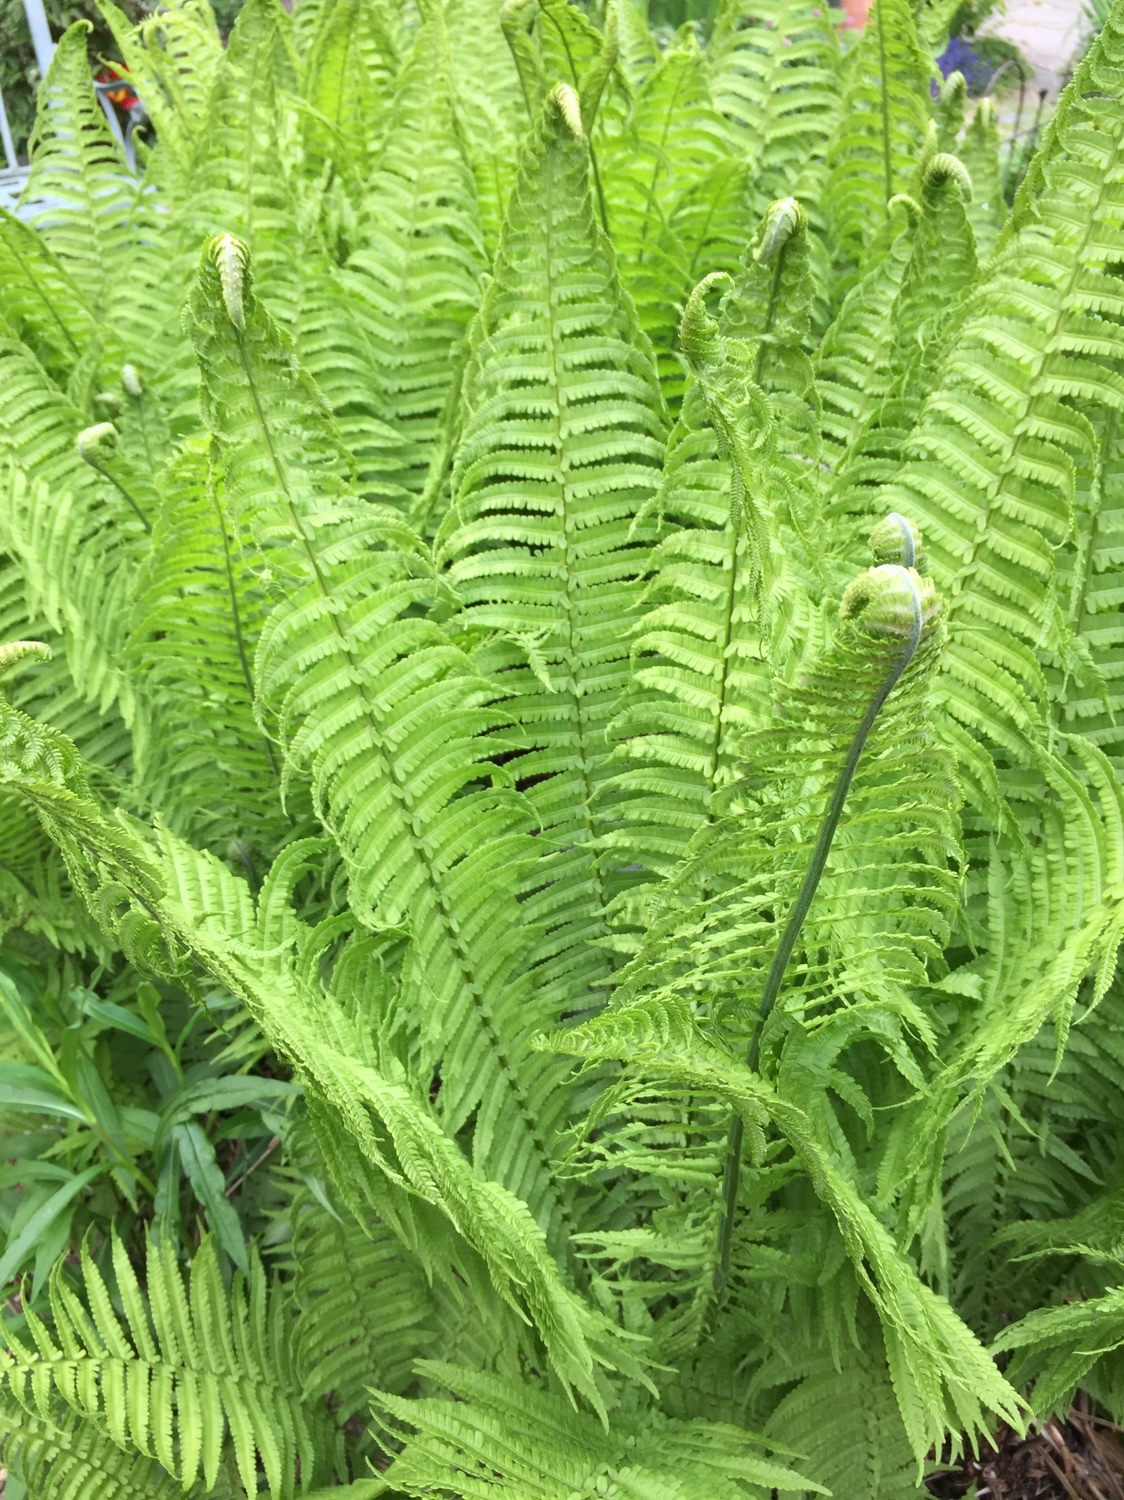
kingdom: Plantae
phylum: Tracheophyta
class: Polypodiopsida
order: Polypodiales
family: Onocleaceae
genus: Matteuccia
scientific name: Matteuccia struthiopteris
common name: Ostrich fern
